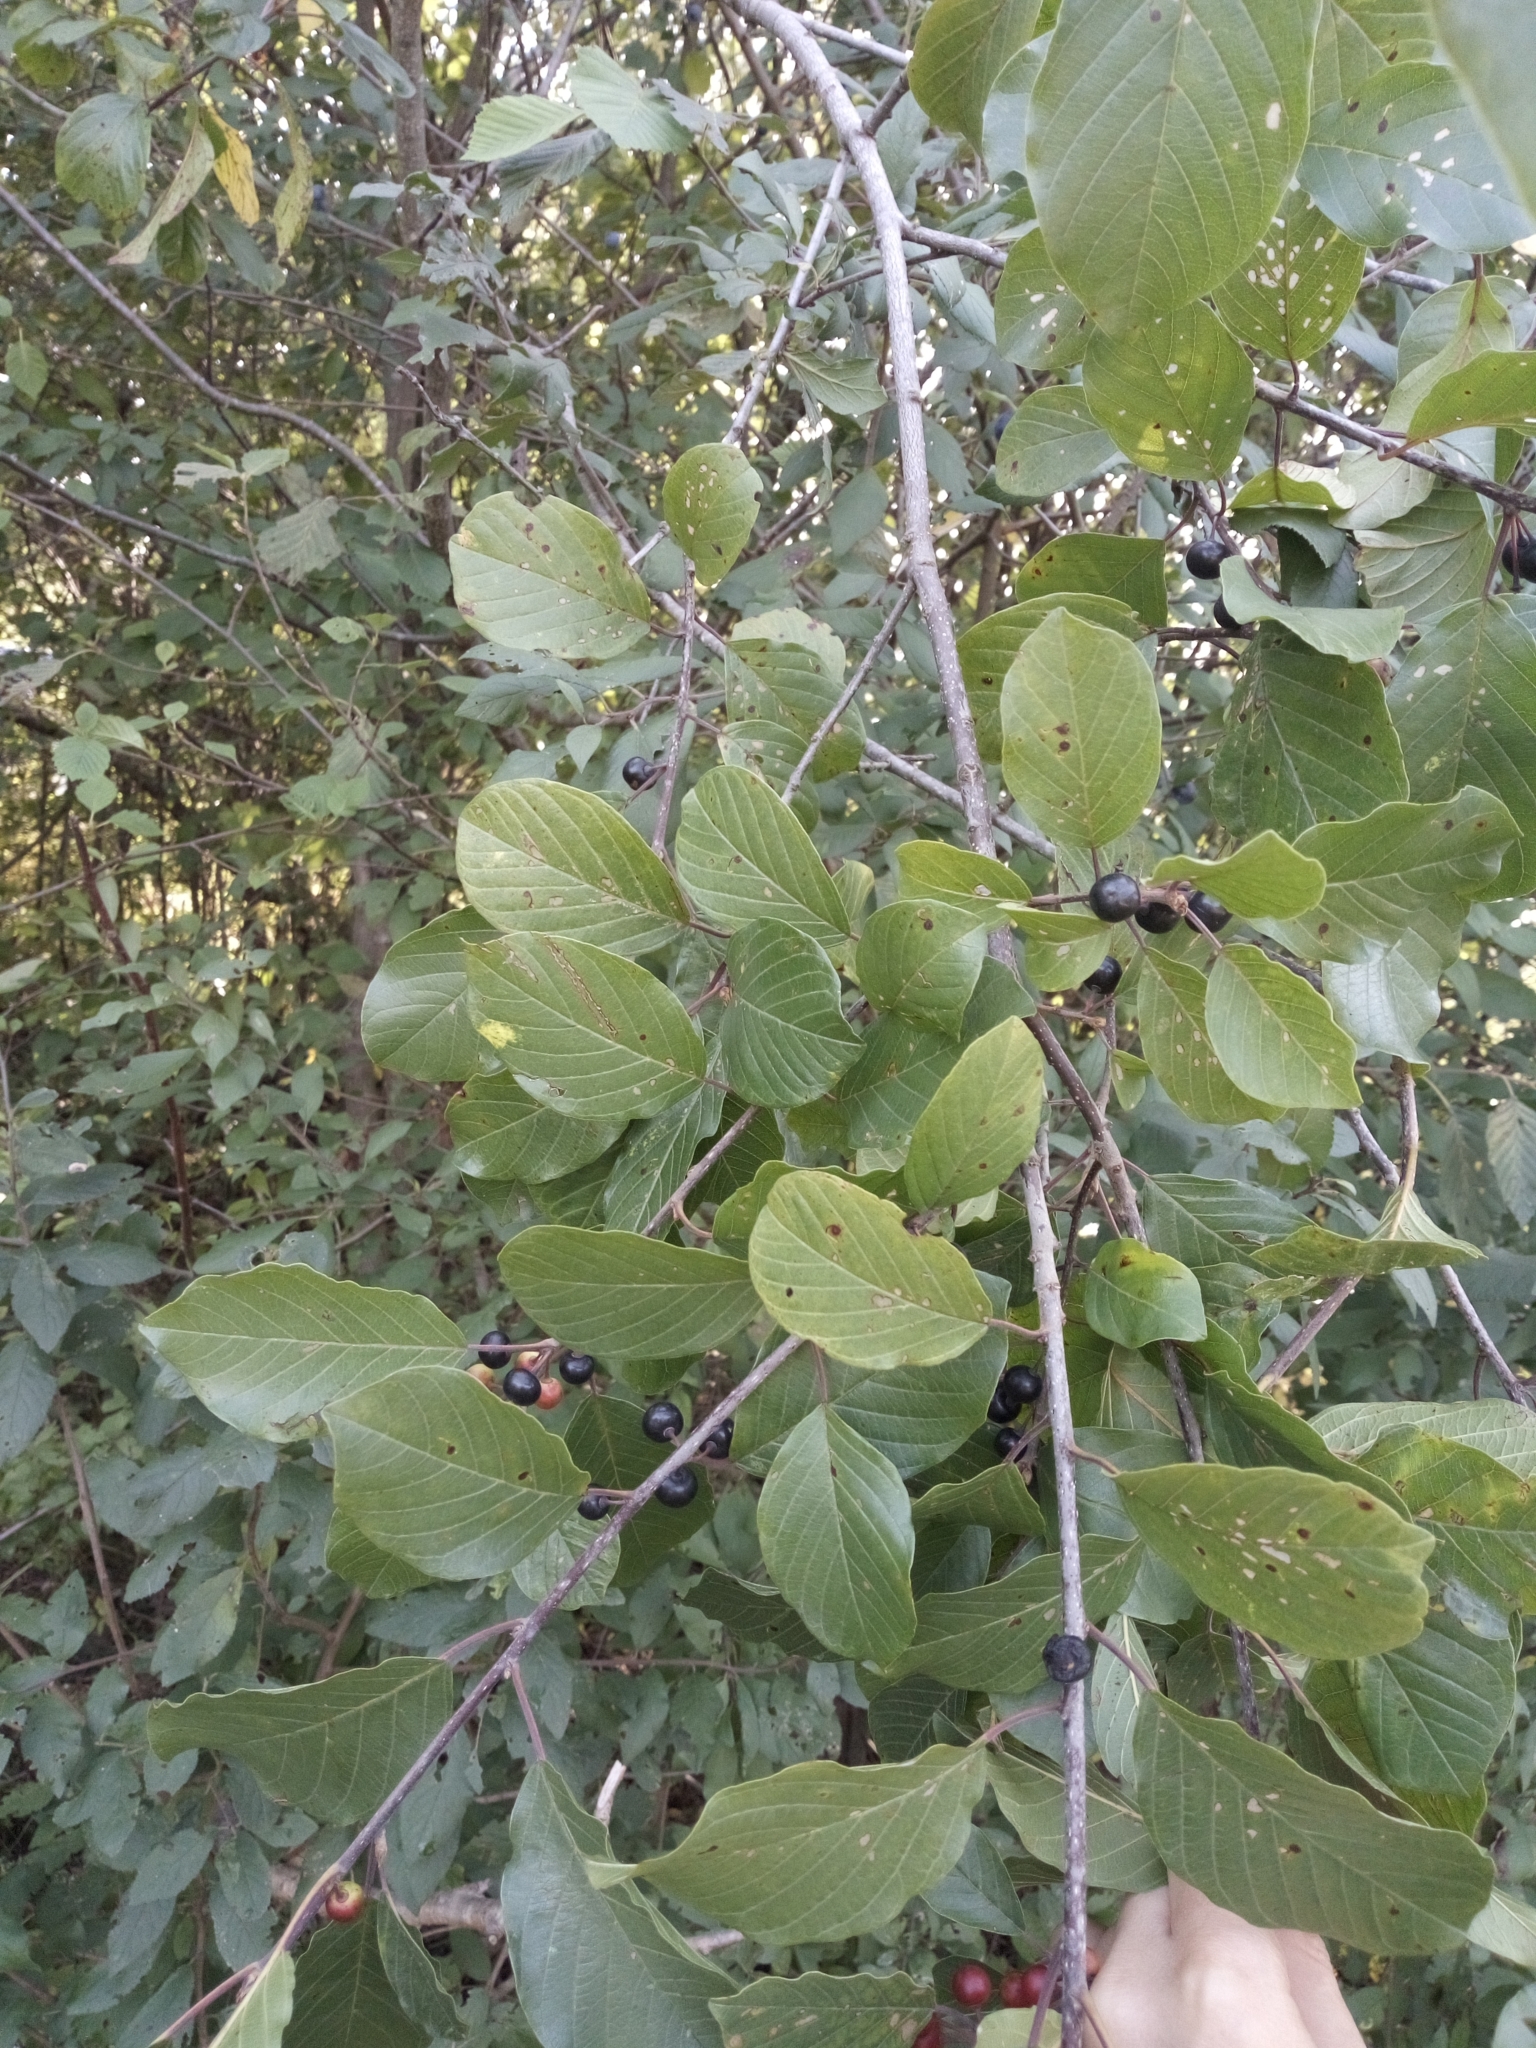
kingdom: Plantae
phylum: Tracheophyta
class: Magnoliopsida
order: Rosales
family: Rhamnaceae
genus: Frangula
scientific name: Frangula alnus
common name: Alder buckthorn
